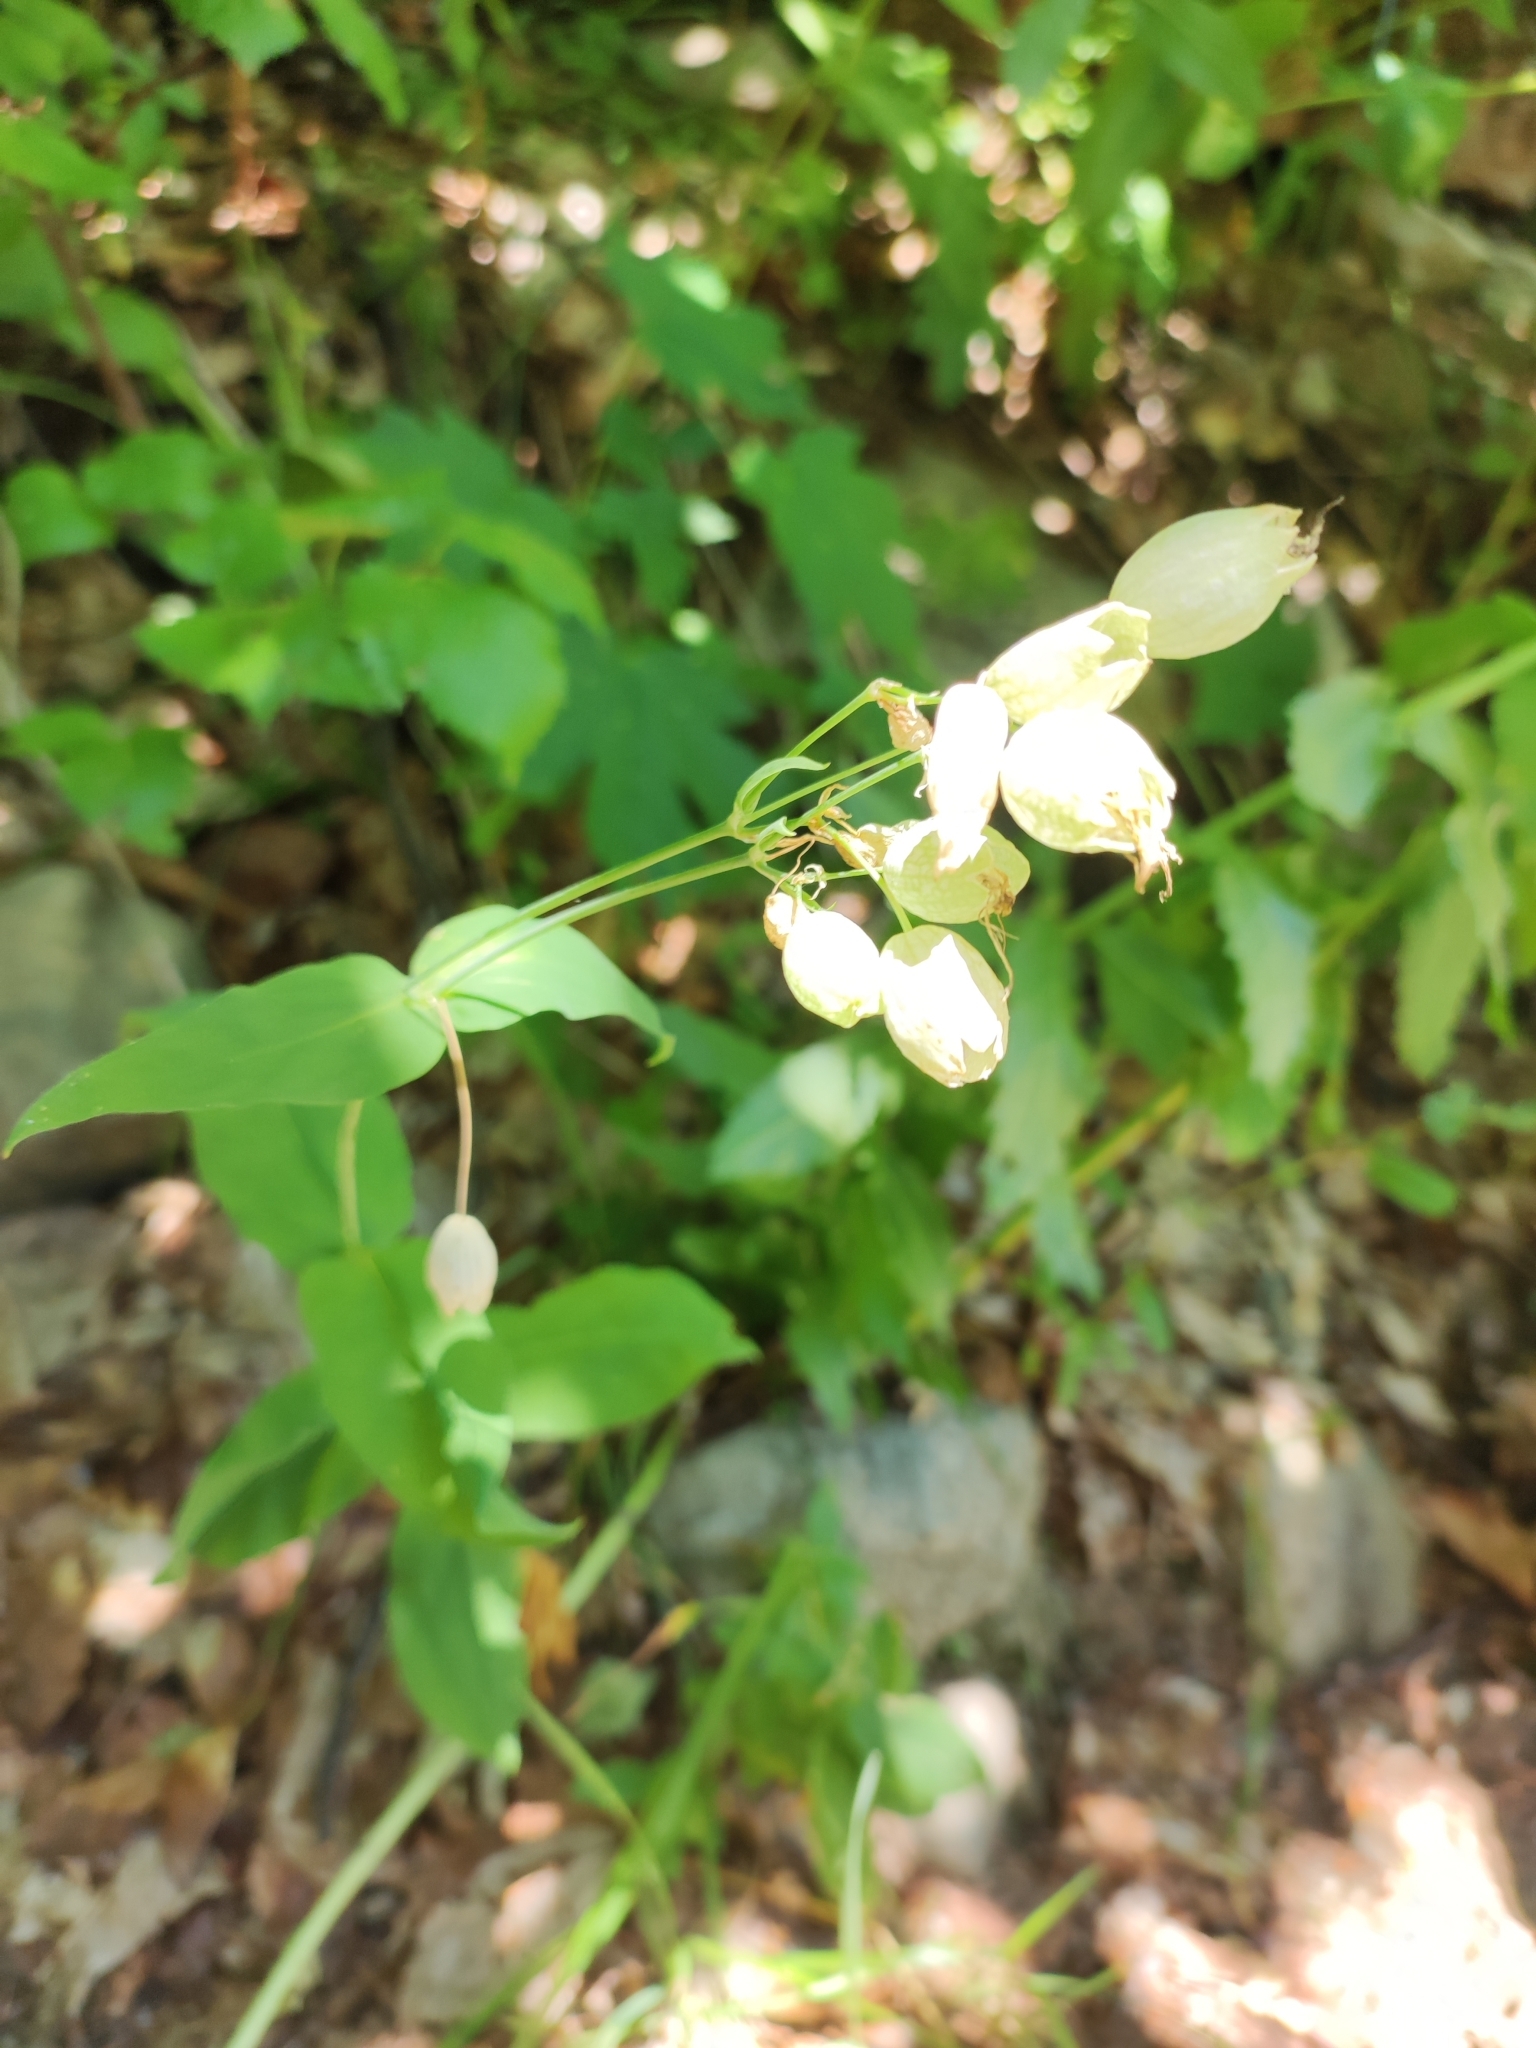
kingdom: Plantae
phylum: Tracheophyta
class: Magnoliopsida
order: Caryophyllales
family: Caryophyllaceae
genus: Silene
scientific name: Silene vulgaris
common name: Bladder campion
